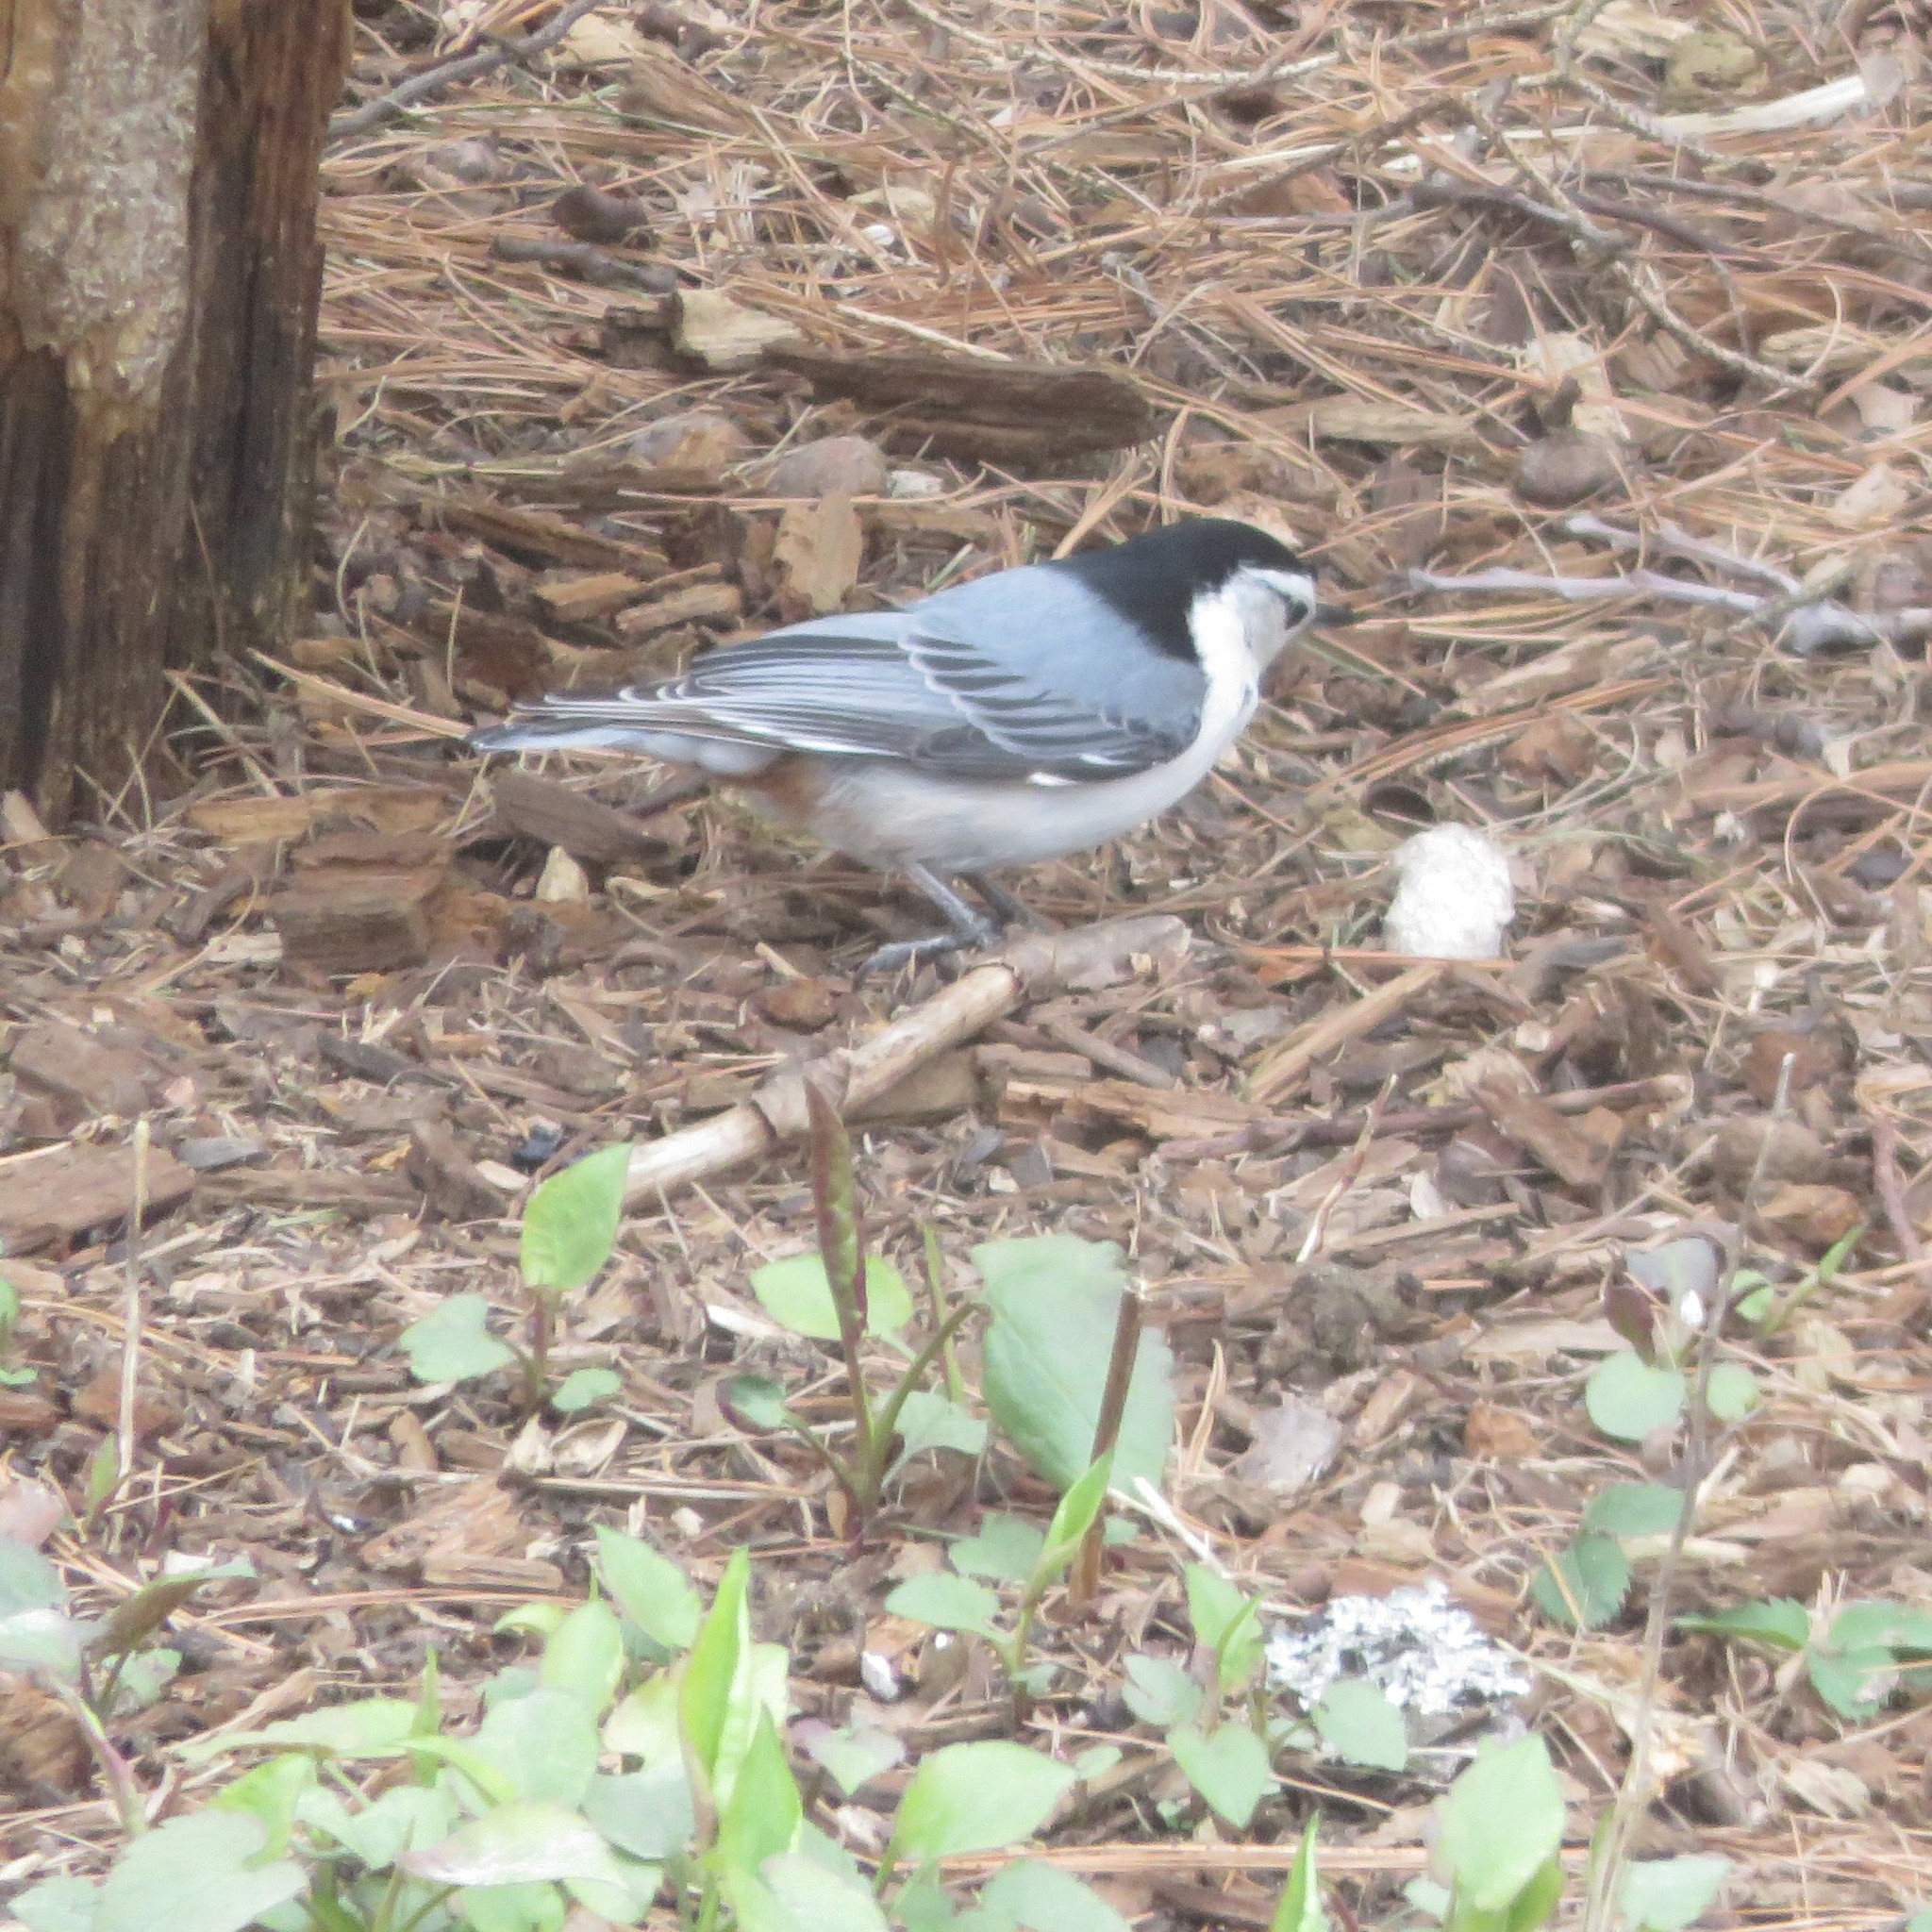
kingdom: Animalia
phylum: Chordata
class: Aves
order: Passeriformes
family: Sittidae
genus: Sitta
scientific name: Sitta carolinensis
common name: White-breasted nuthatch
